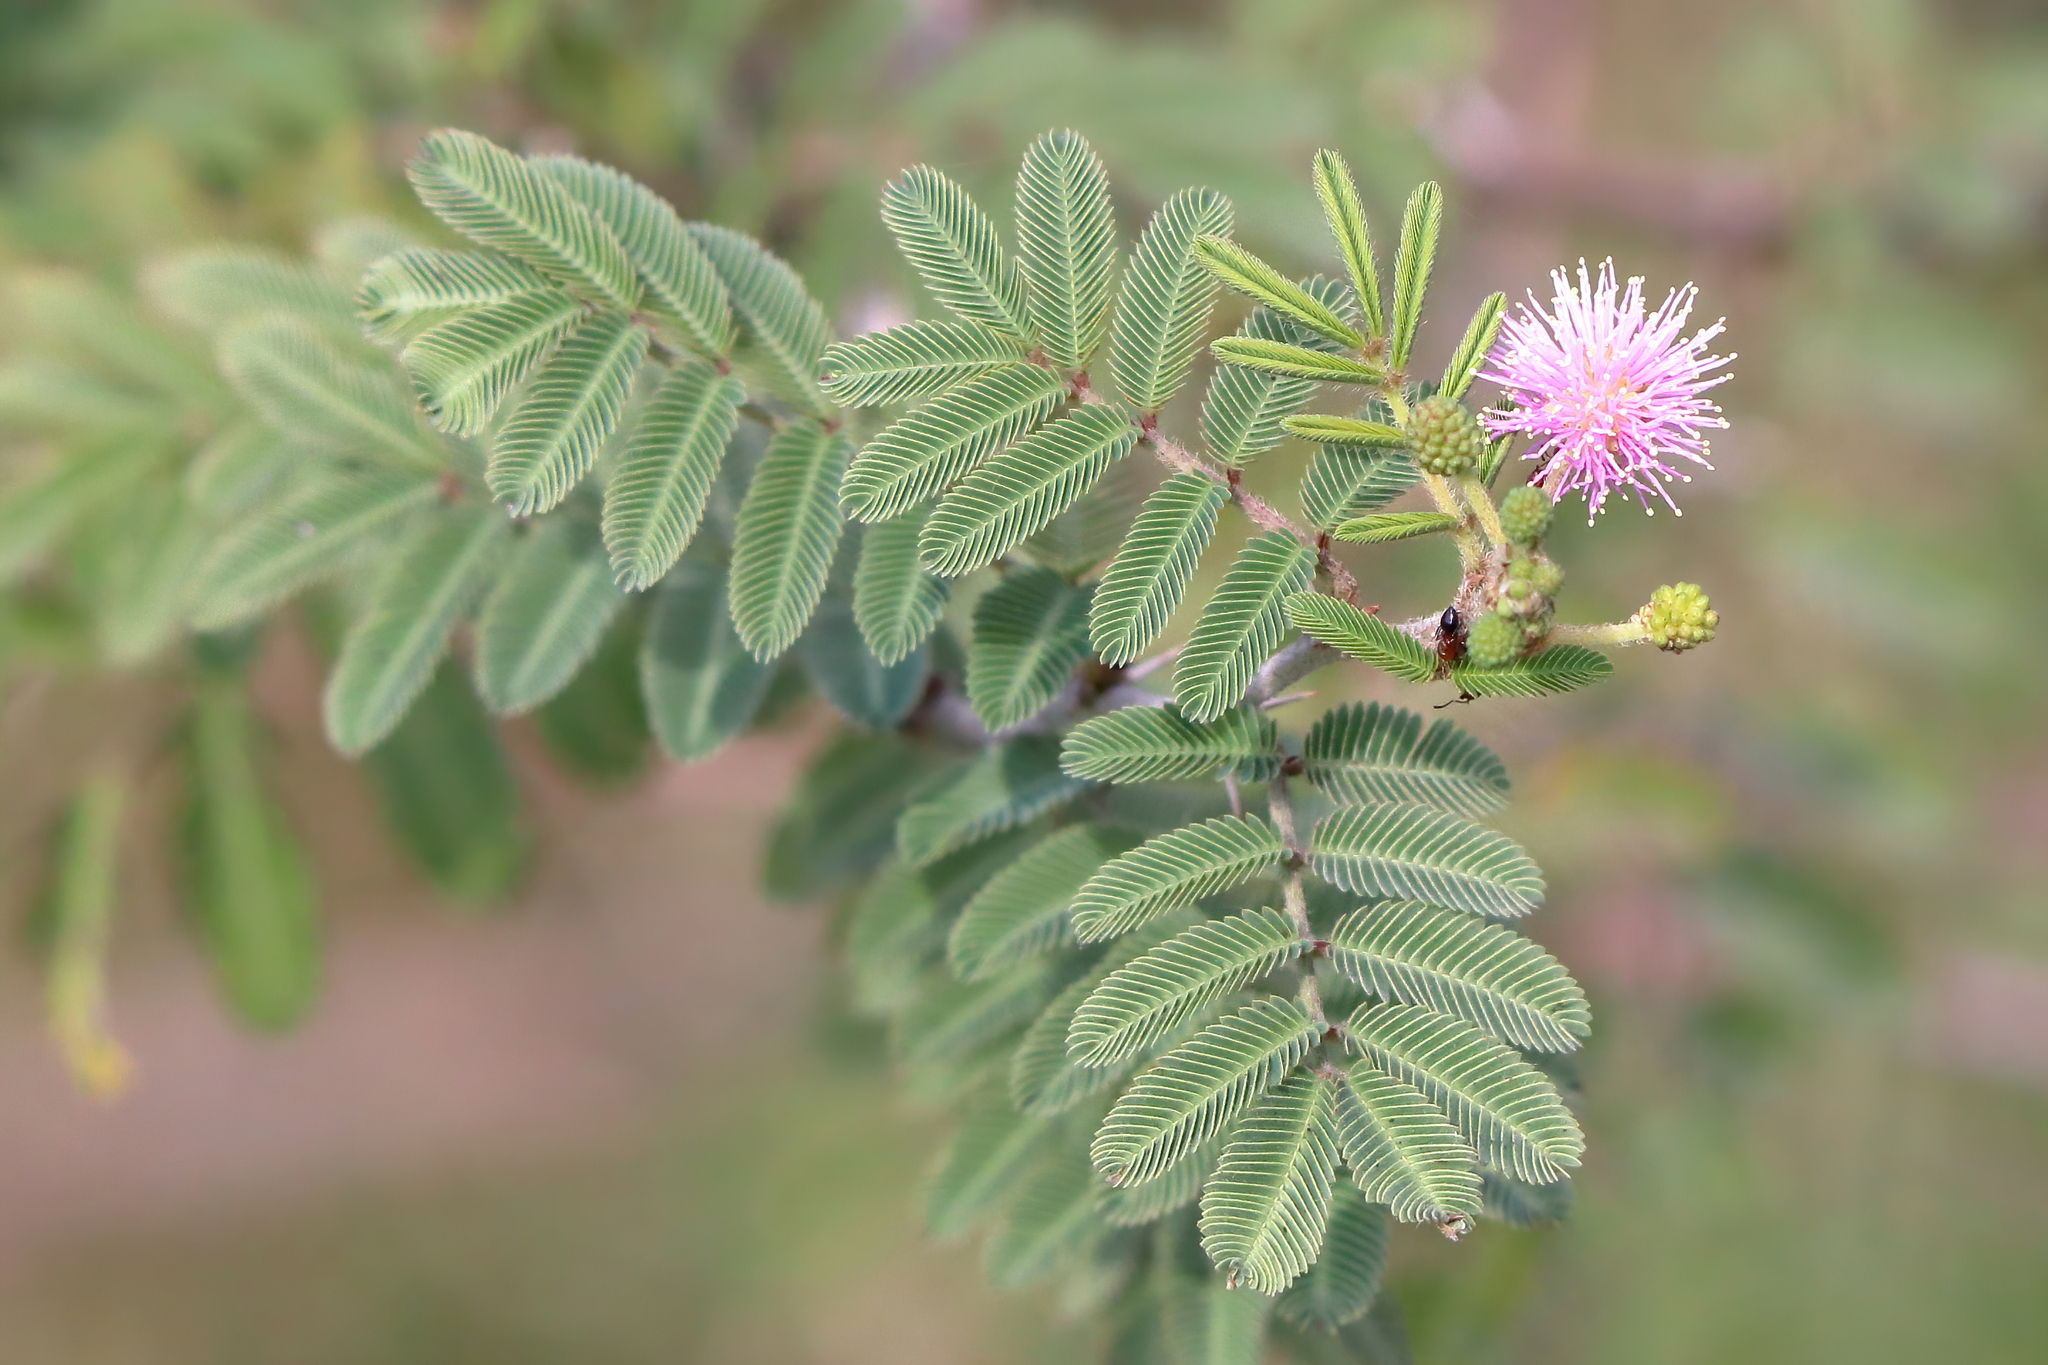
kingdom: Plantae
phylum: Tracheophyta
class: Magnoliopsida
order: Fabales
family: Fabaceae
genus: Mimosa
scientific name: Mimosa pigra
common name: Black mimosa
